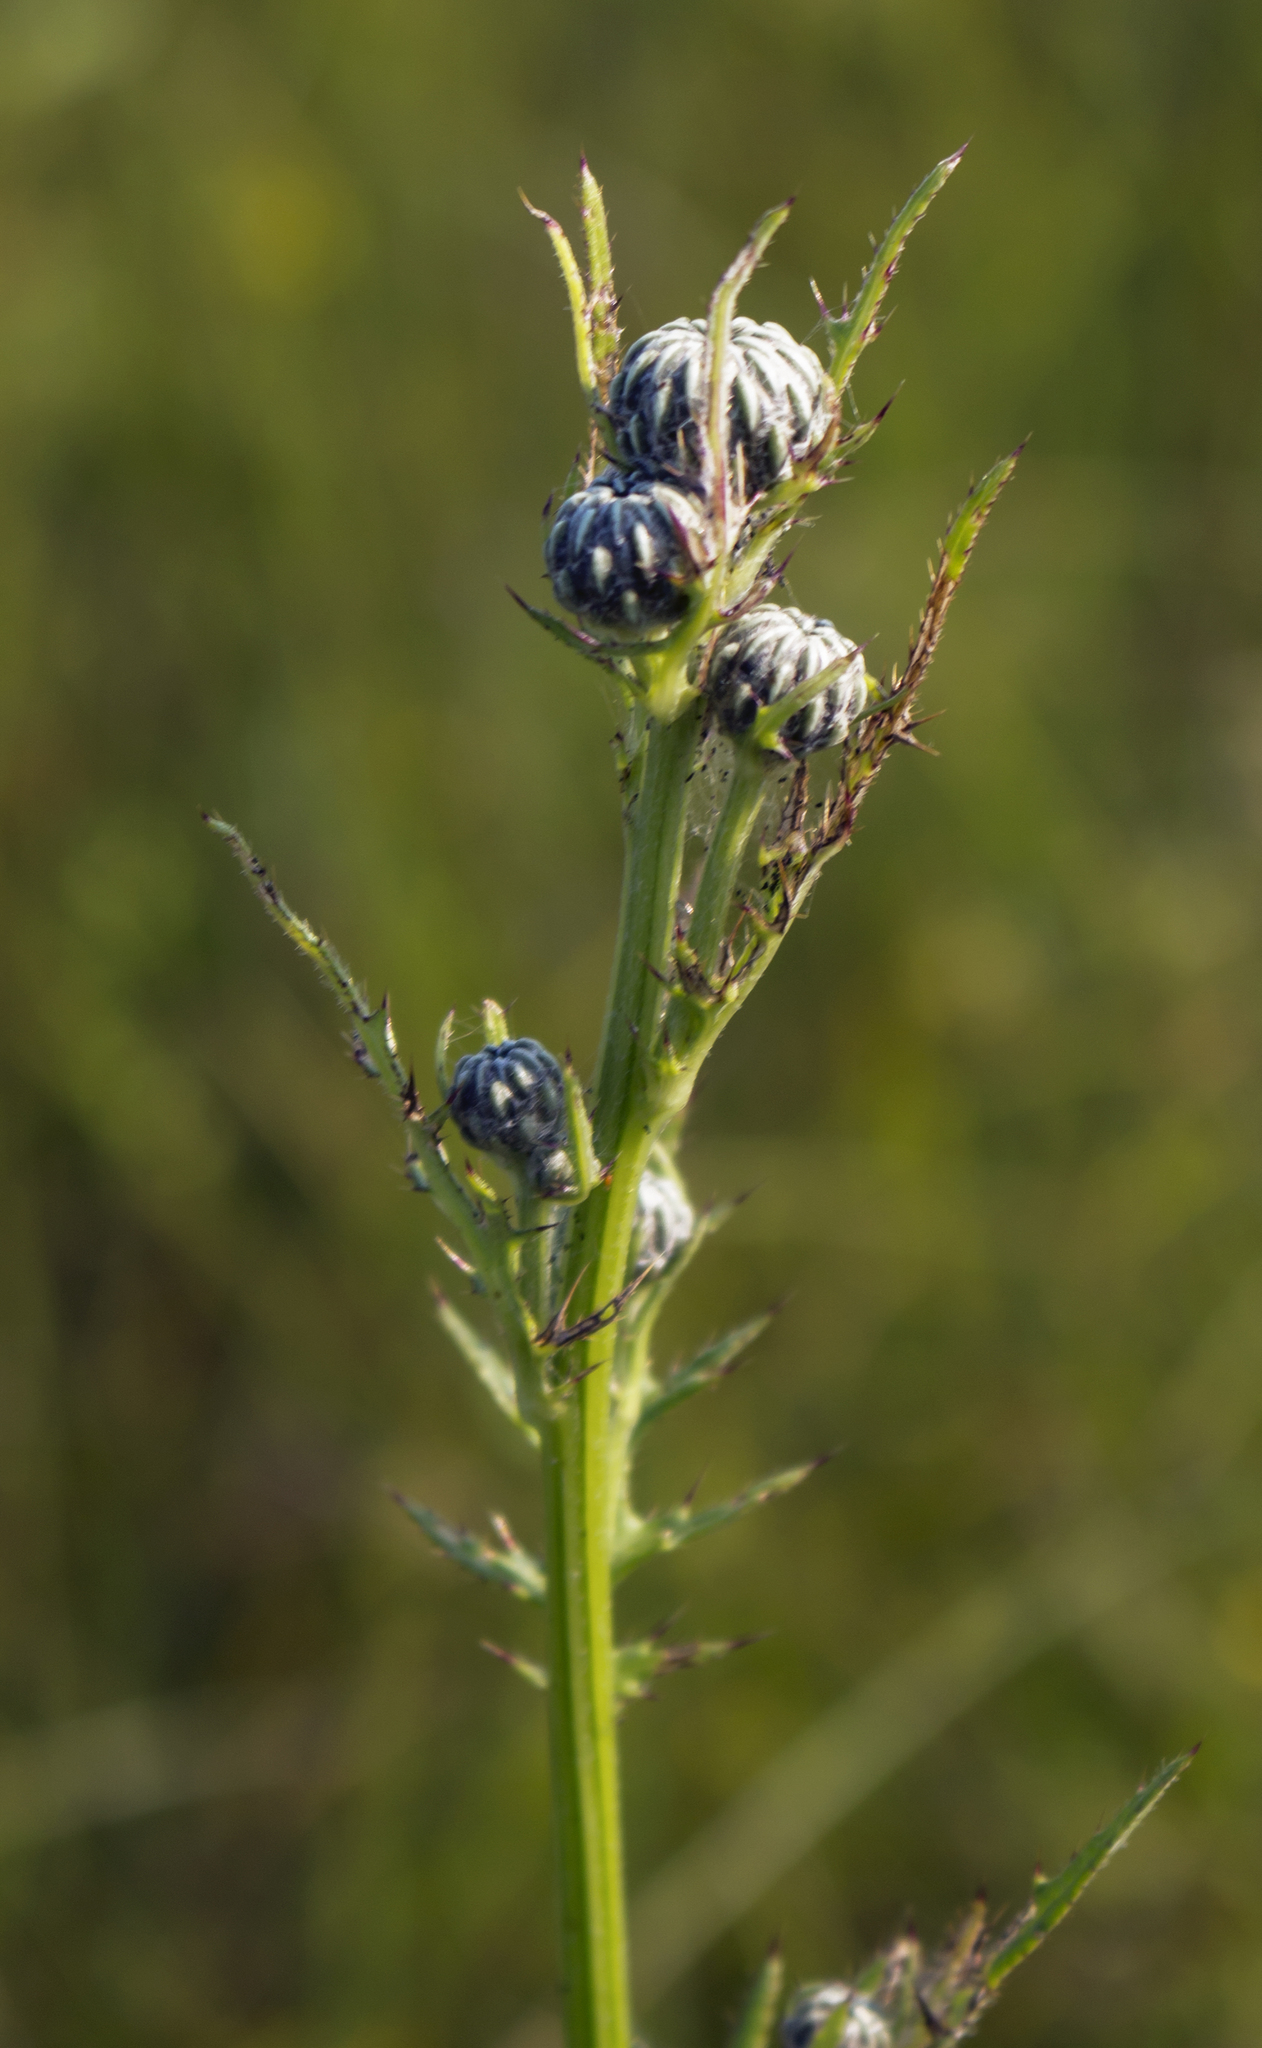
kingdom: Plantae
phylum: Tracheophyta
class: Magnoliopsida
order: Asterales
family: Asteraceae
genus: Cirsium
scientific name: Cirsium muticum
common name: Dunce-nettle
